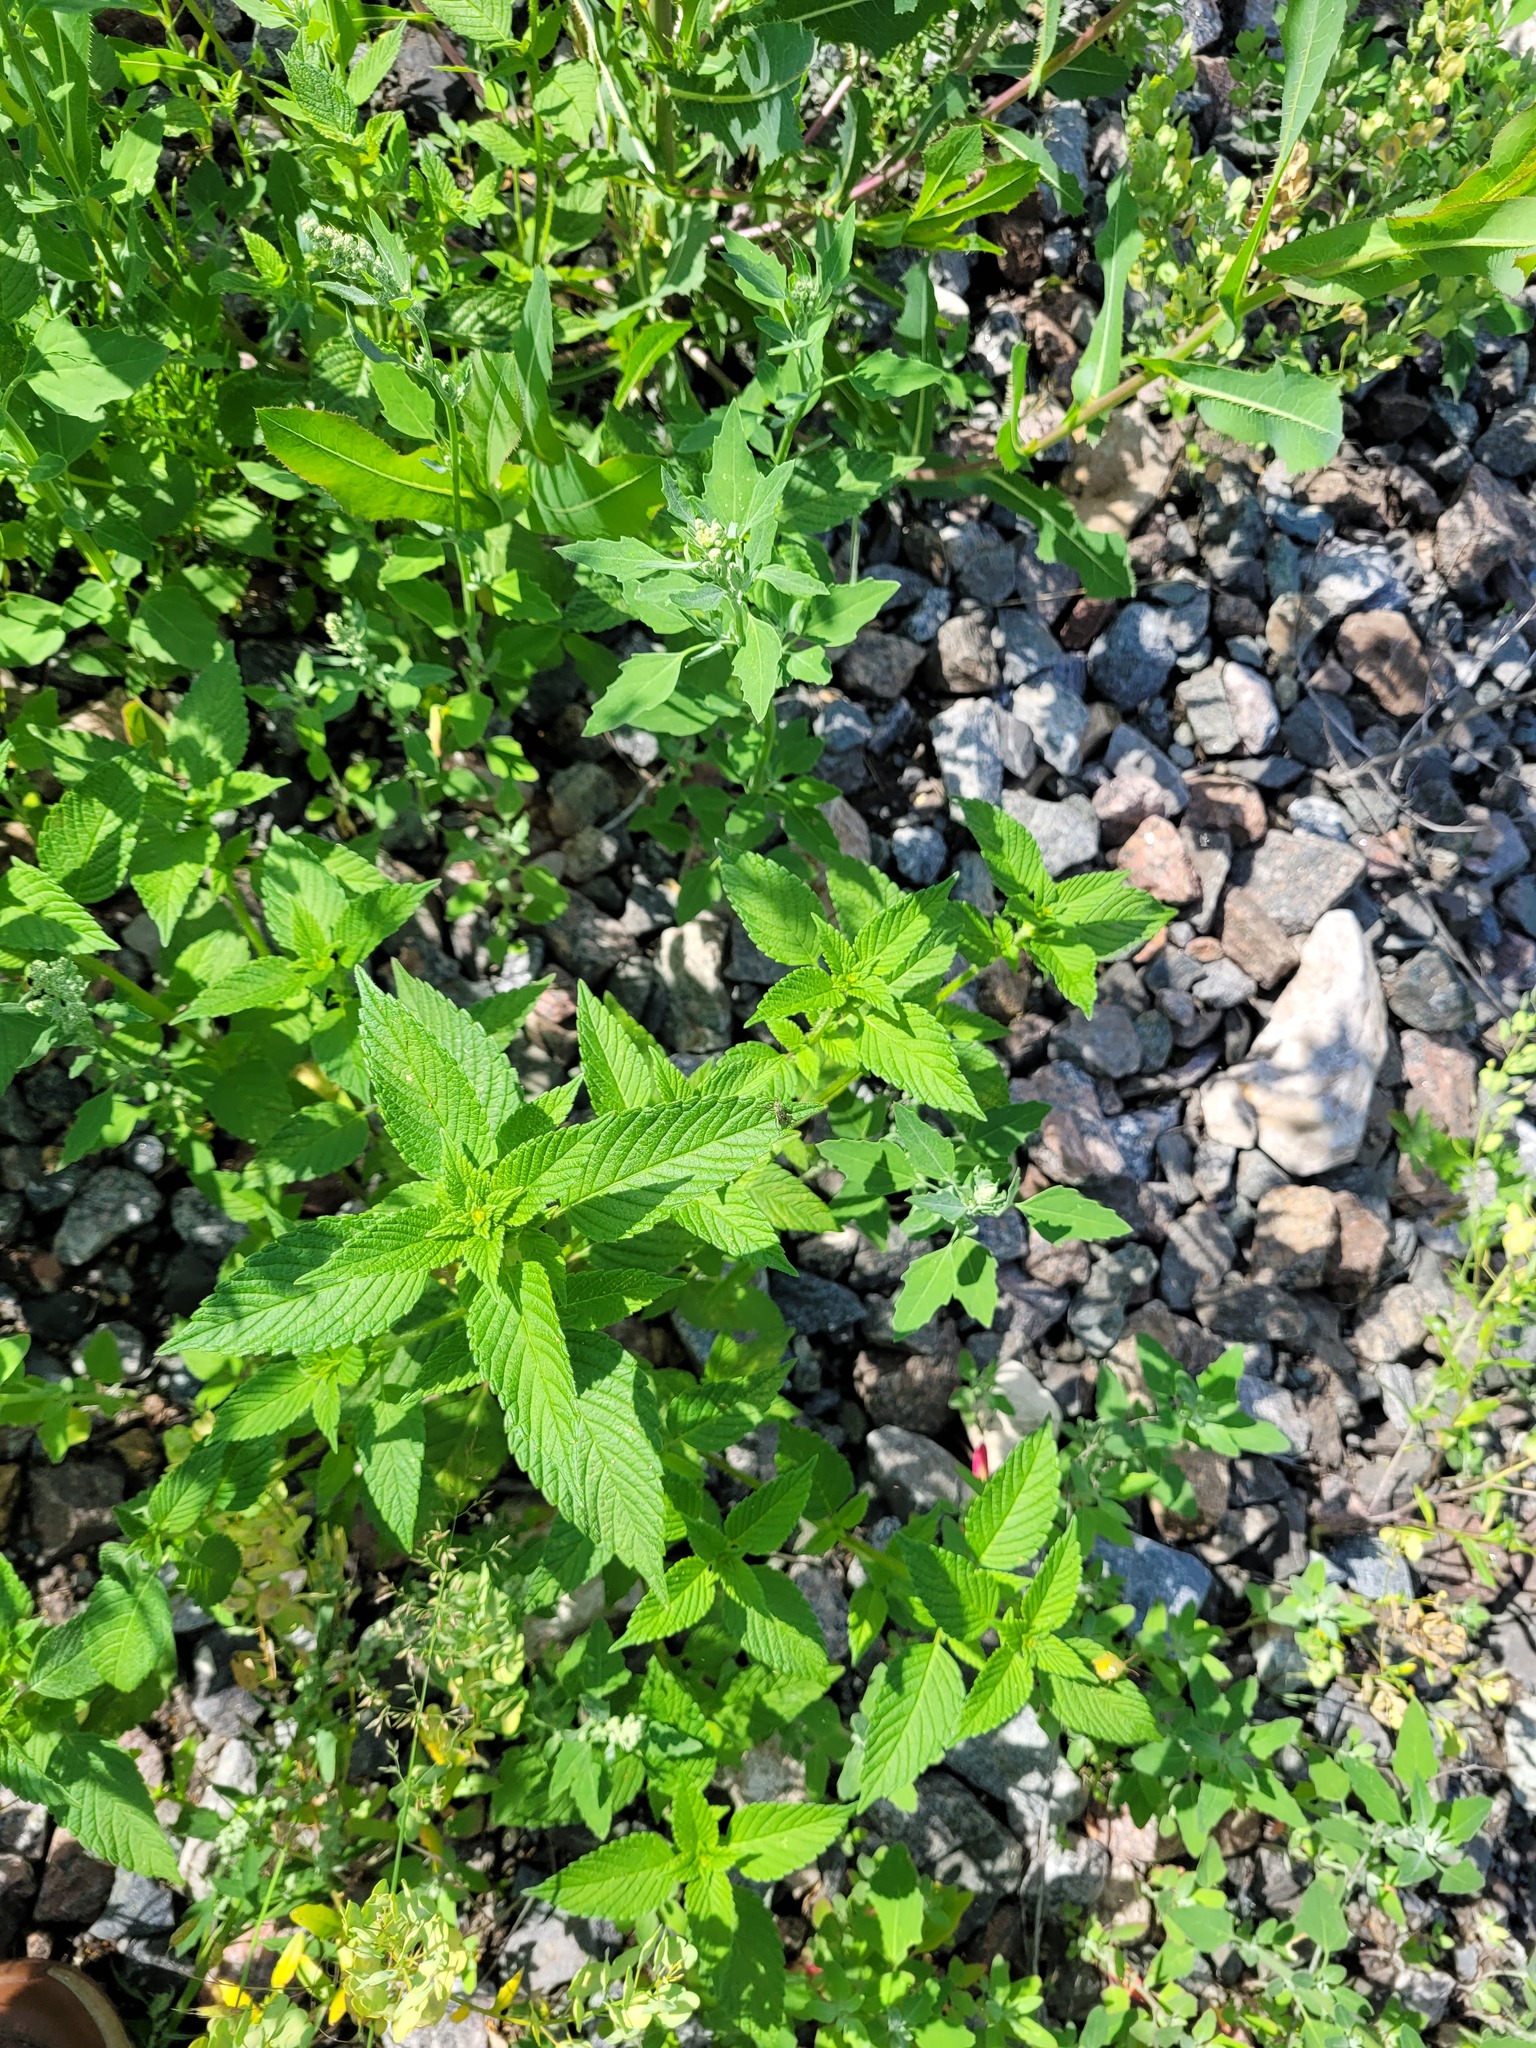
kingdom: Plantae
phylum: Tracheophyta
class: Magnoliopsida
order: Lamiales
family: Lamiaceae
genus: Galeopsis
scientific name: Galeopsis bifida
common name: Bifid hemp-nettle
